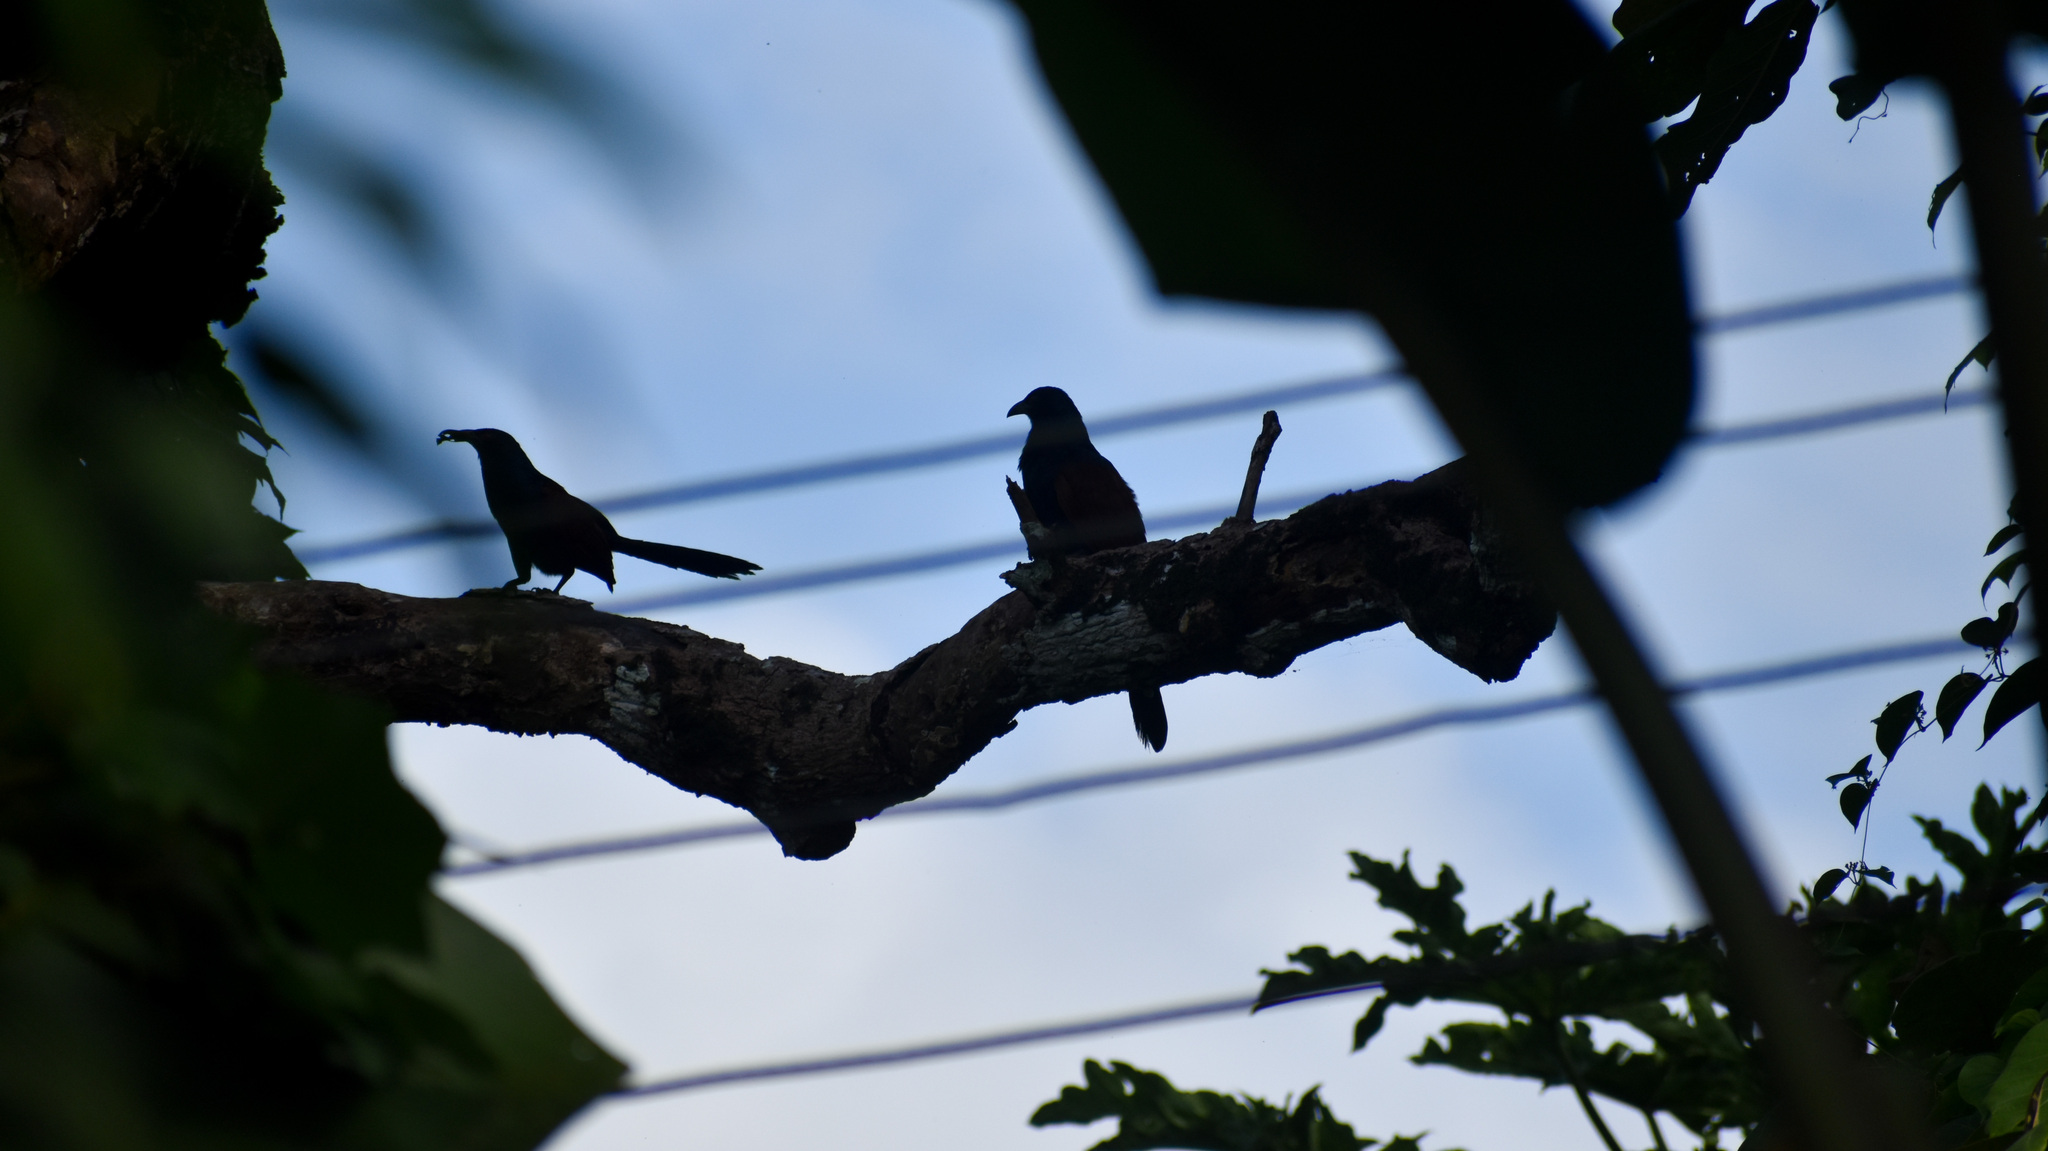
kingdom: Animalia
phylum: Chordata
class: Aves
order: Cuculiformes
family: Cuculidae
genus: Centropus
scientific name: Centropus sinensis
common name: Greater coucal
